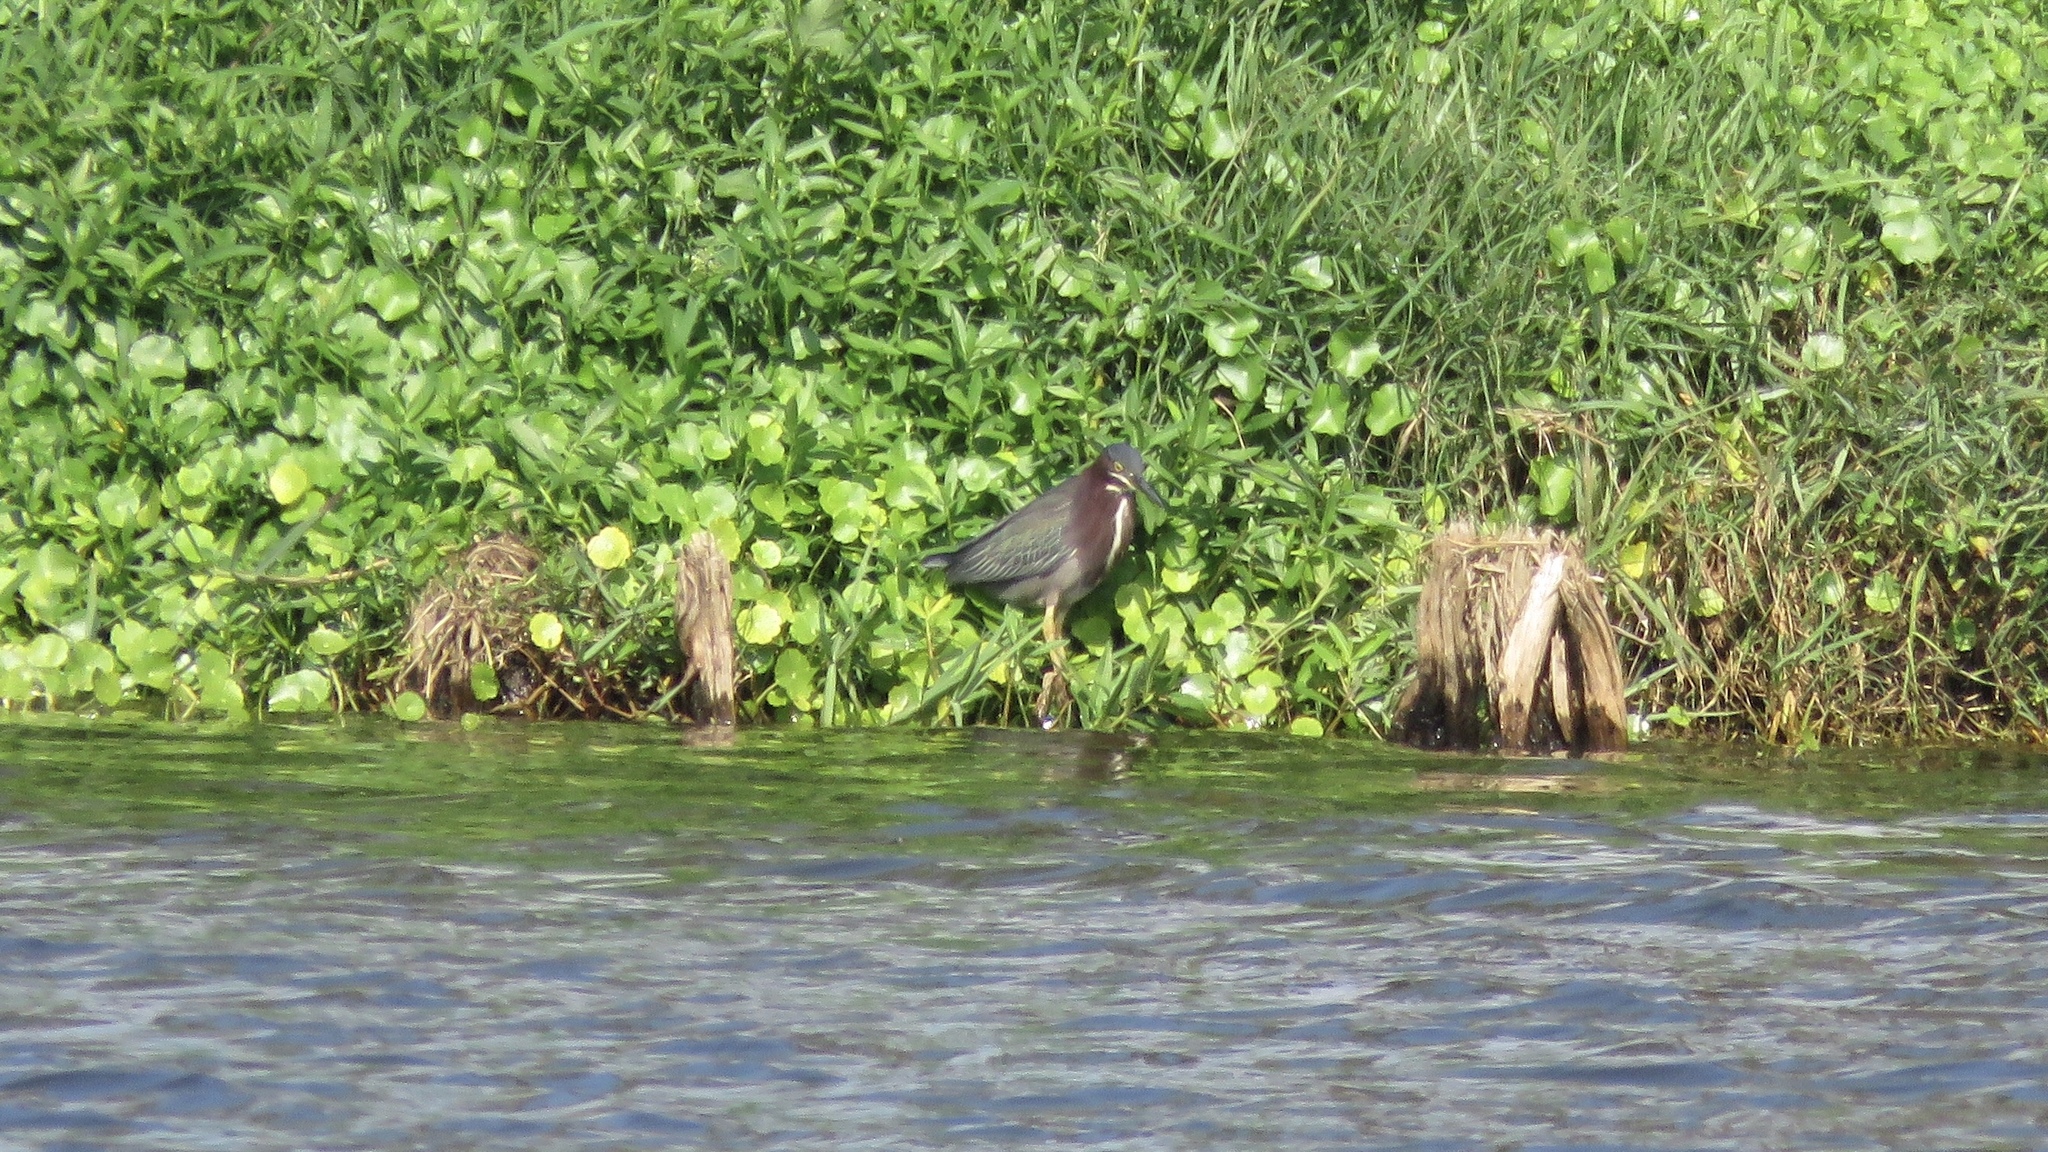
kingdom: Animalia
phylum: Chordata
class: Aves
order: Pelecaniformes
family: Ardeidae
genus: Butorides
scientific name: Butorides virescens
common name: Green heron
